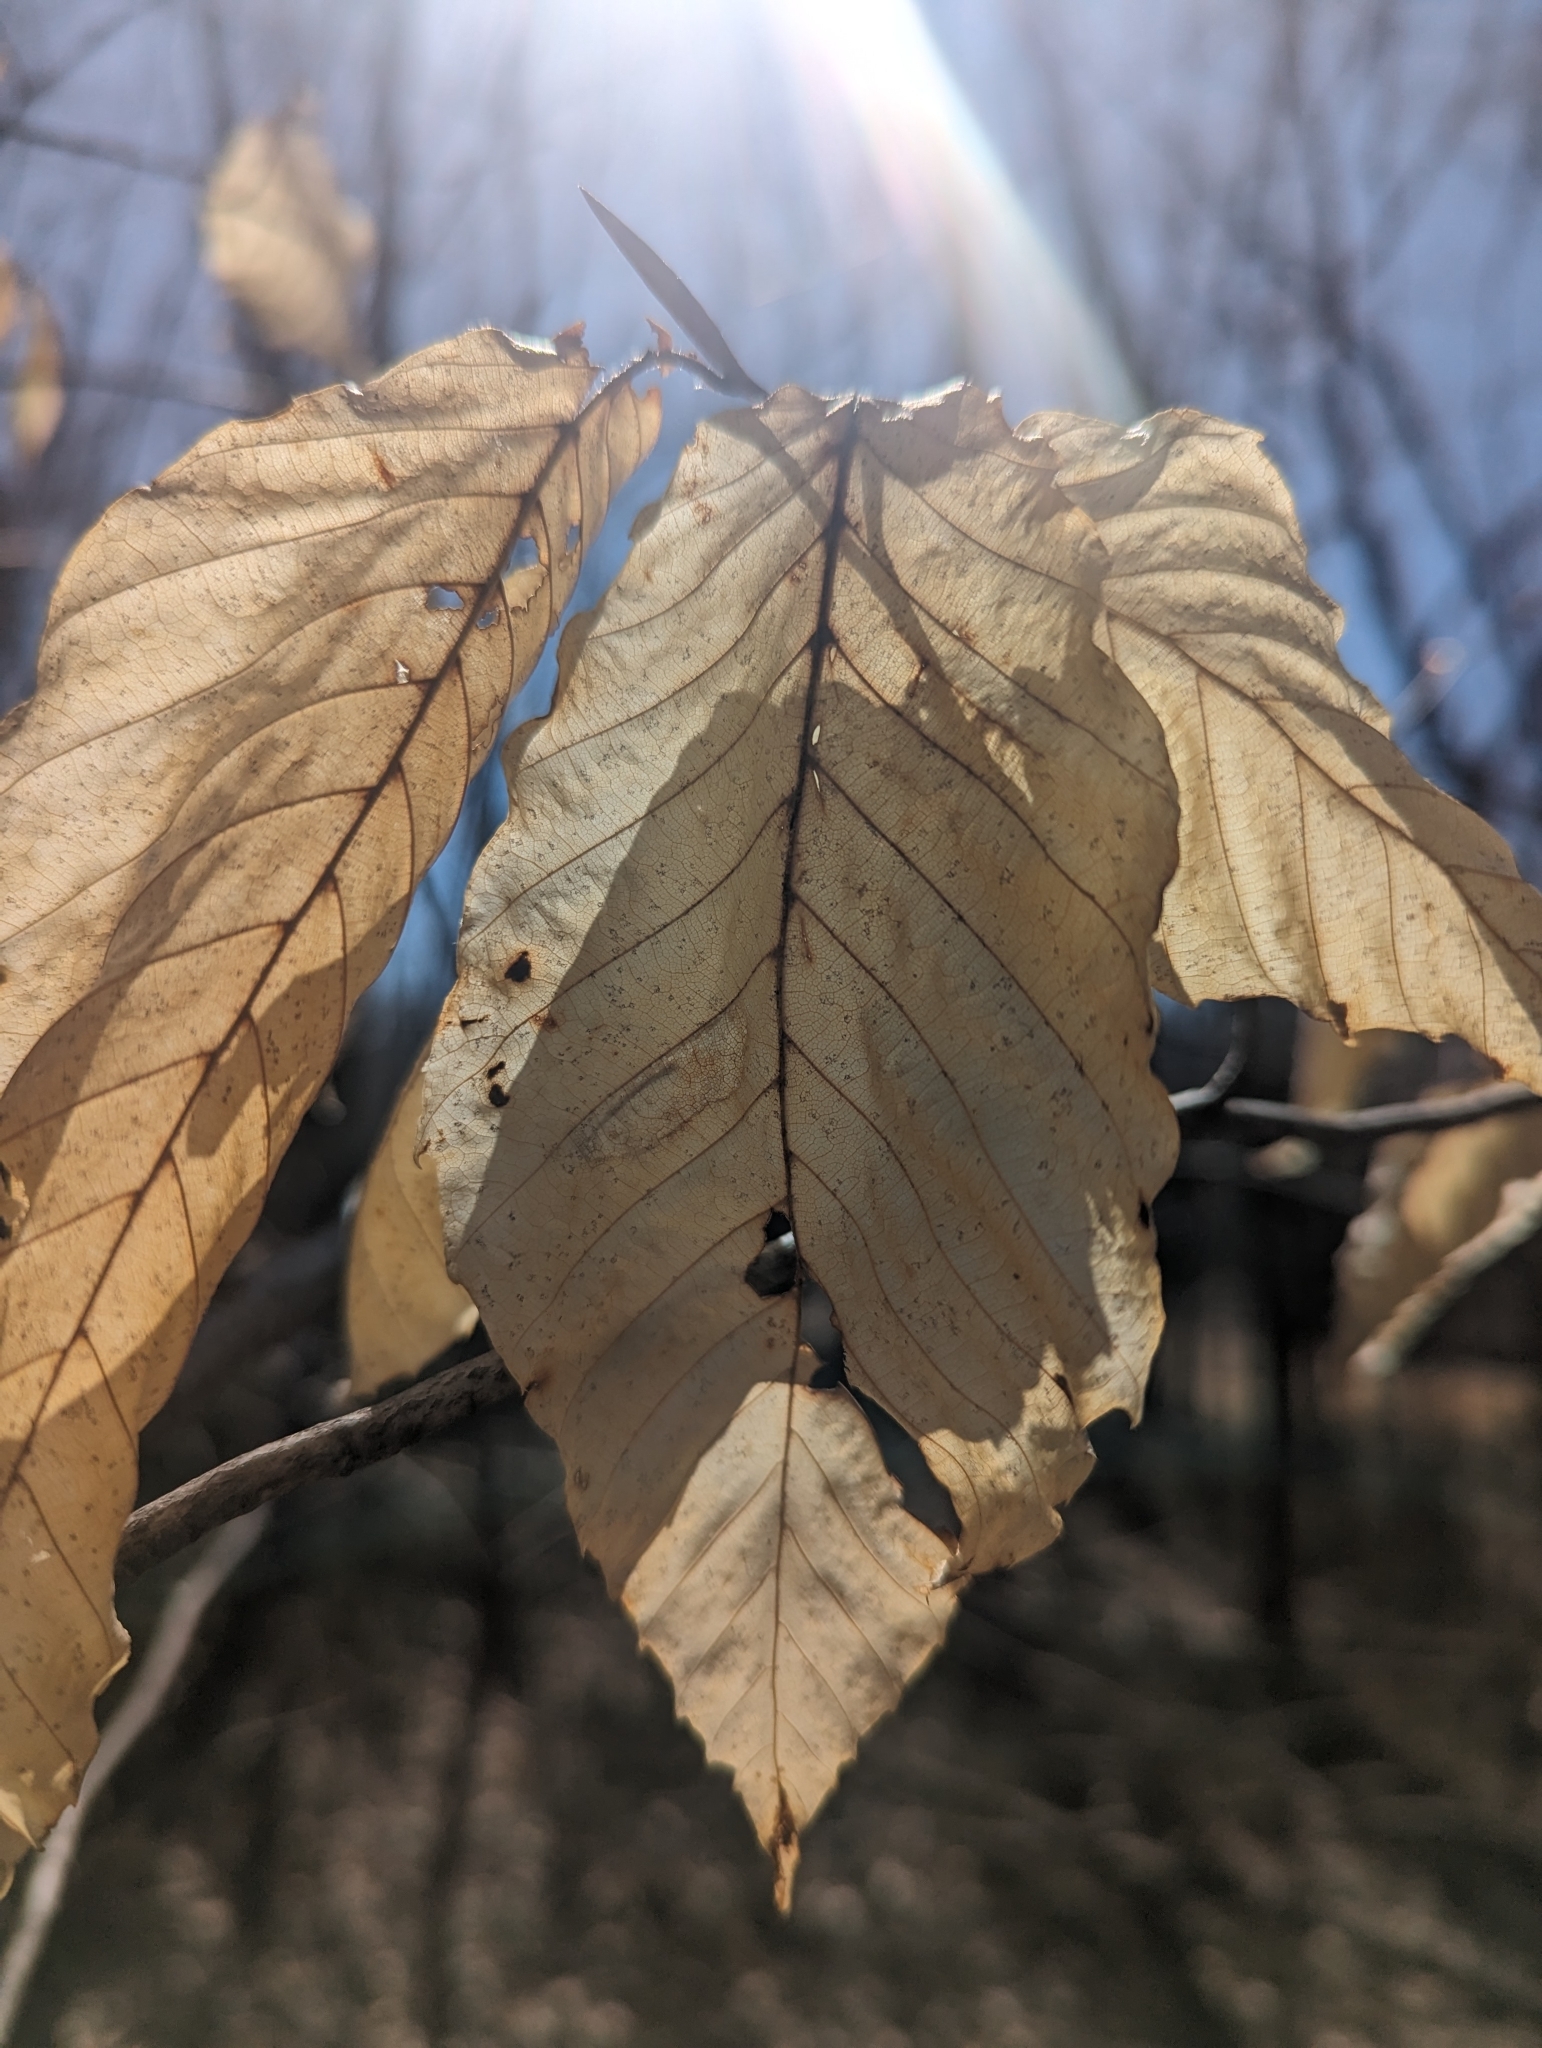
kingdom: Plantae
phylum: Tracheophyta
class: Magnoliopsida
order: Fagales
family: Fagaceae
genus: Fagus
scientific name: Fagus grandifolia
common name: American beech
